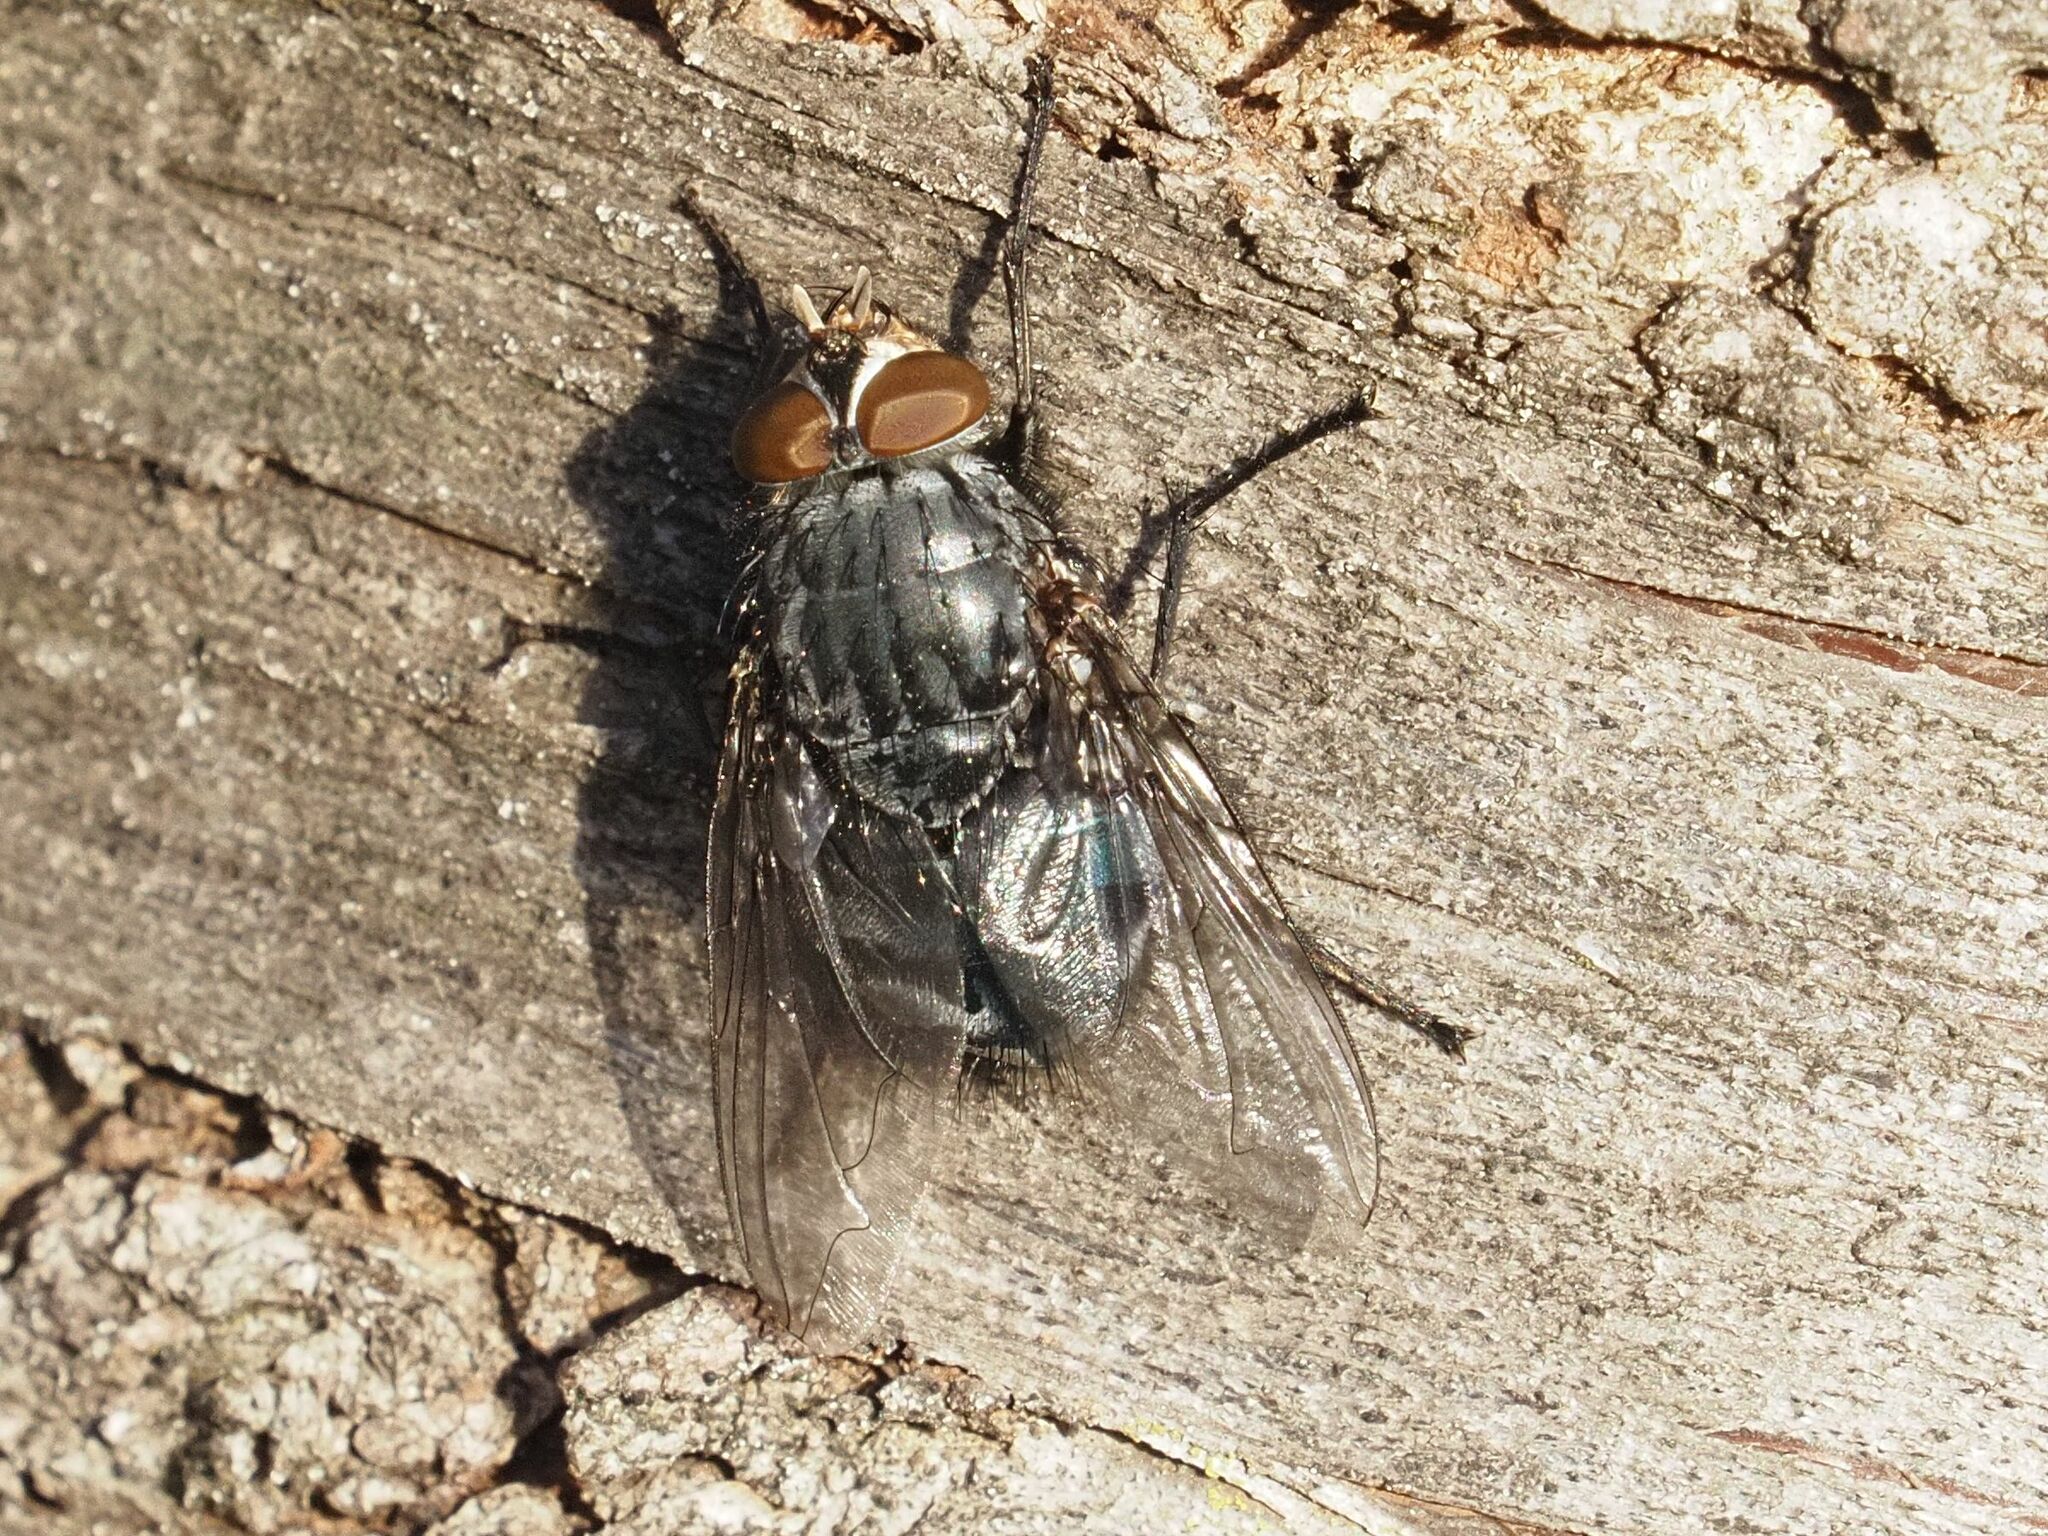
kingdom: Animalia
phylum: Arthropoda
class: Insecta
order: Diptera
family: Calliphoridae
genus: Calliphora
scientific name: Calliphora vicina
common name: Common blow flie
